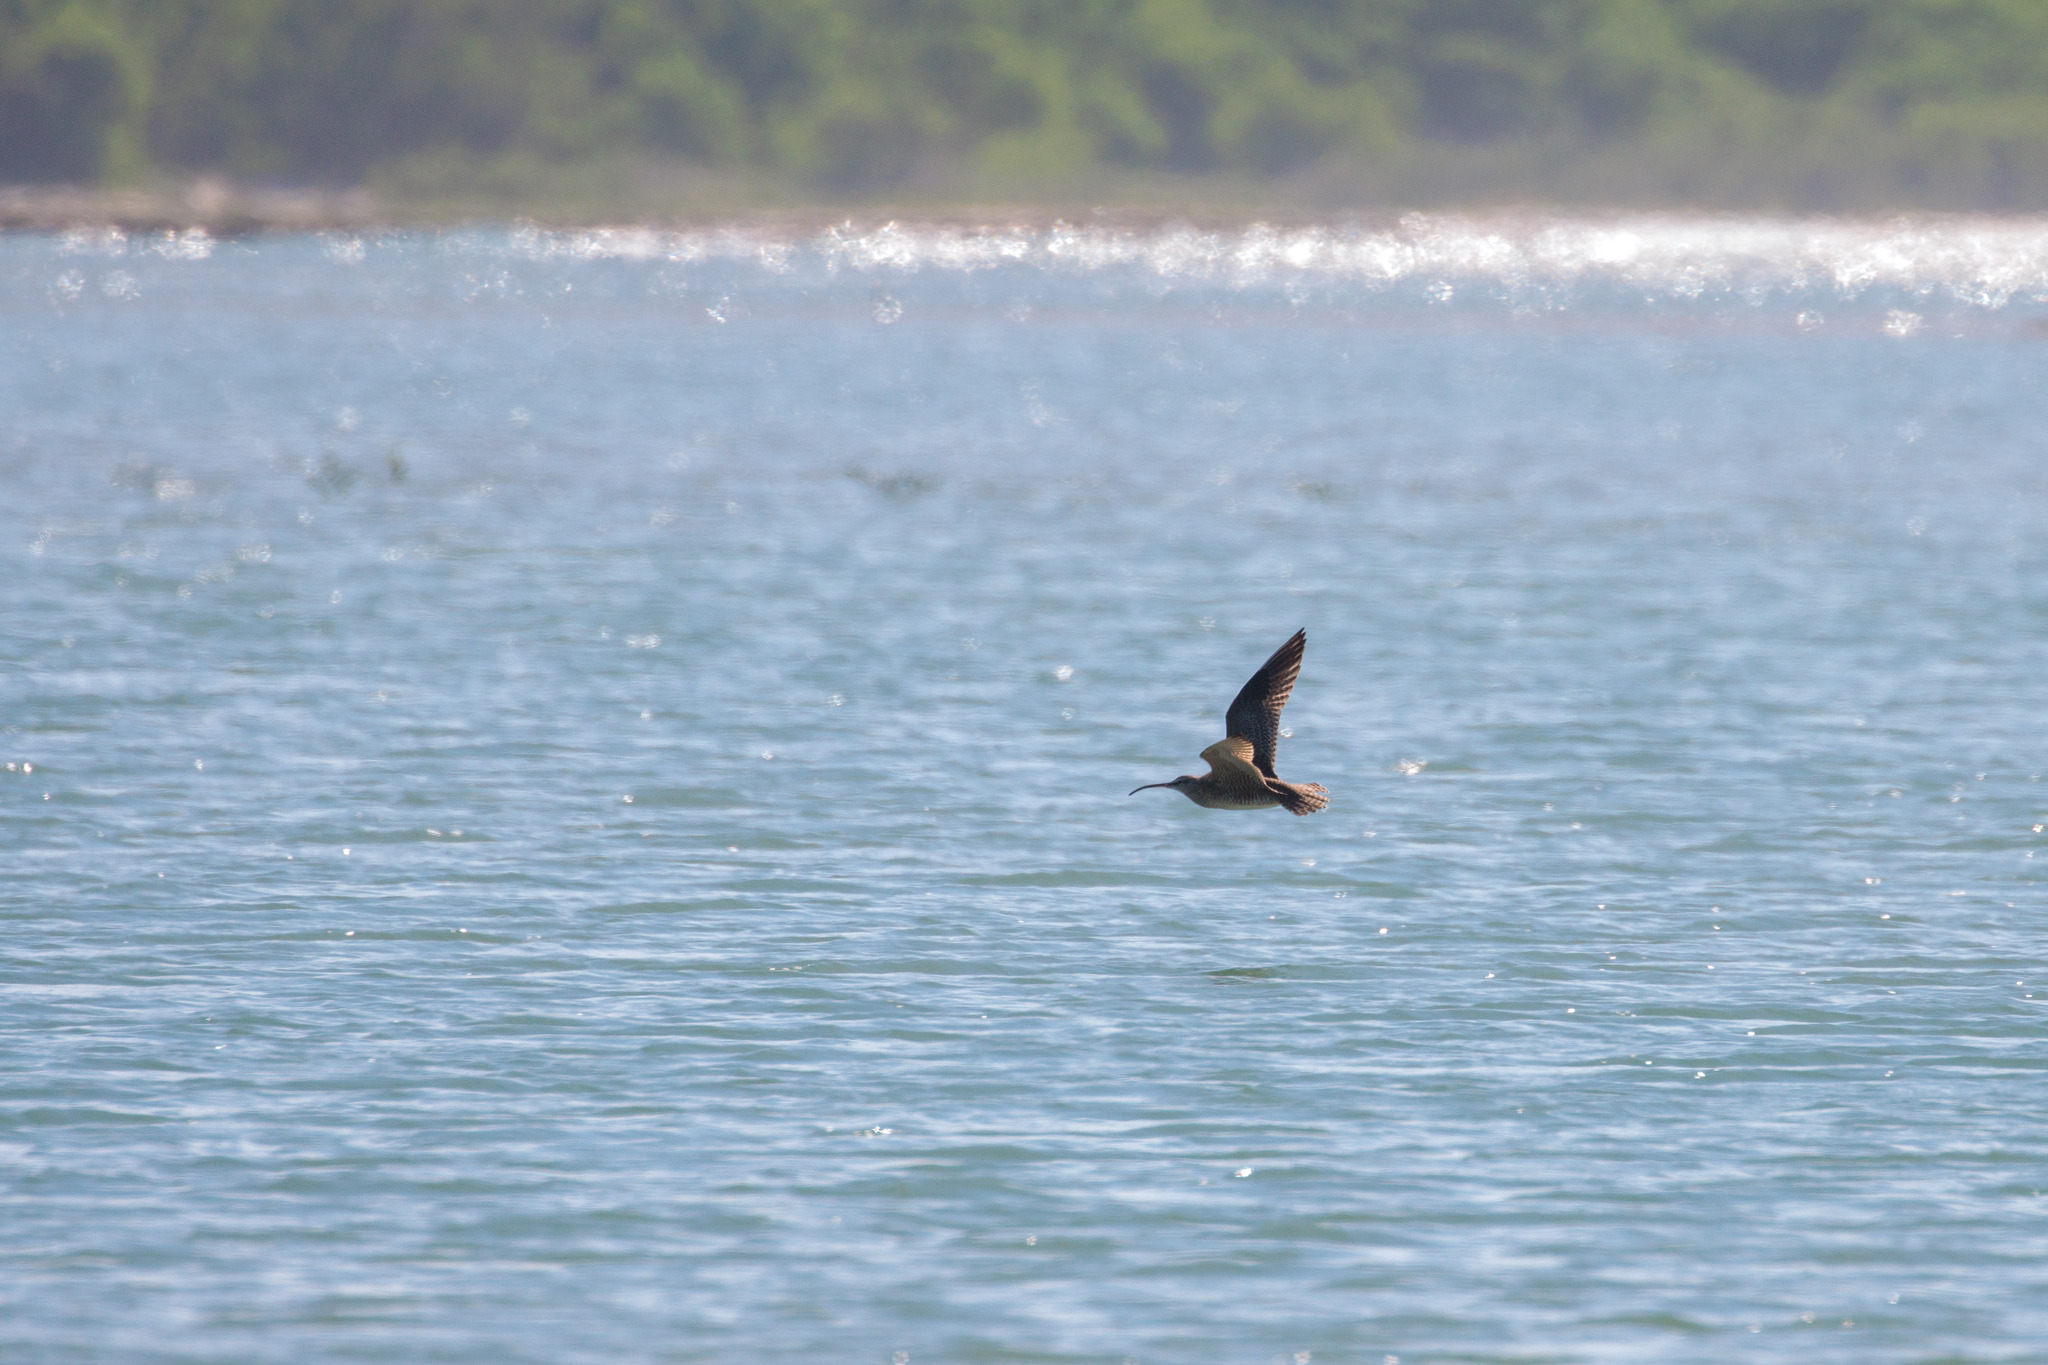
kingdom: Animalia
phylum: Chordata
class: Aves
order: Charadriiformes
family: Scolopacidae
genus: Numenius
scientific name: Numenius hudsonicus
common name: Hudsonian whimbrel
